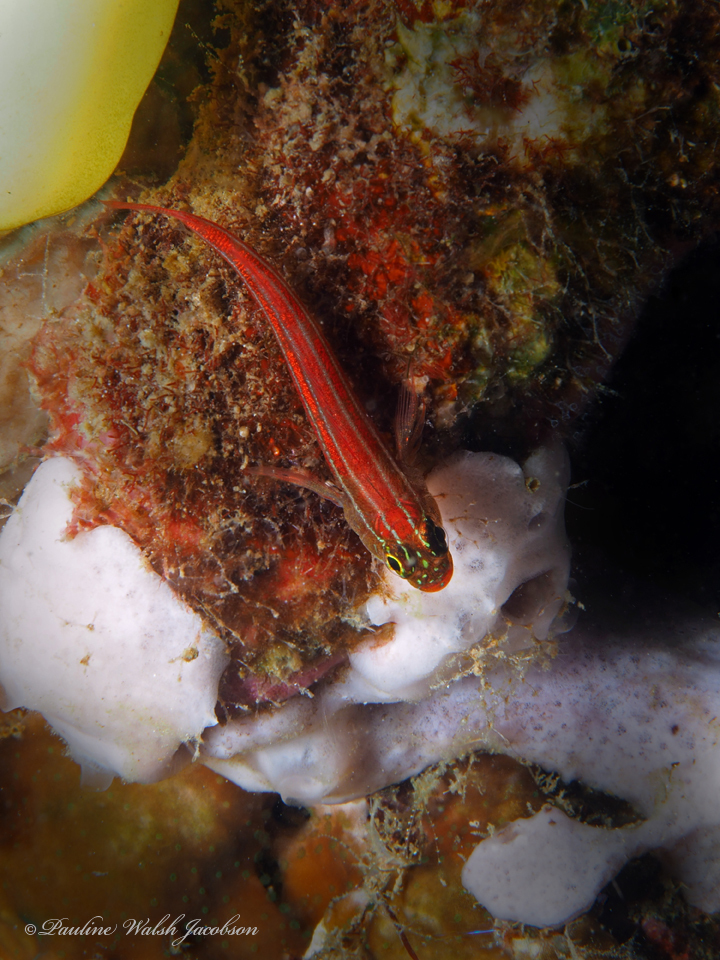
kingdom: Animalia
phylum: Chordata
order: Perciformes
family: Tripterygiidae
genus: Helcogramma
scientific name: Helcogramma striata
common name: Striped threefin
